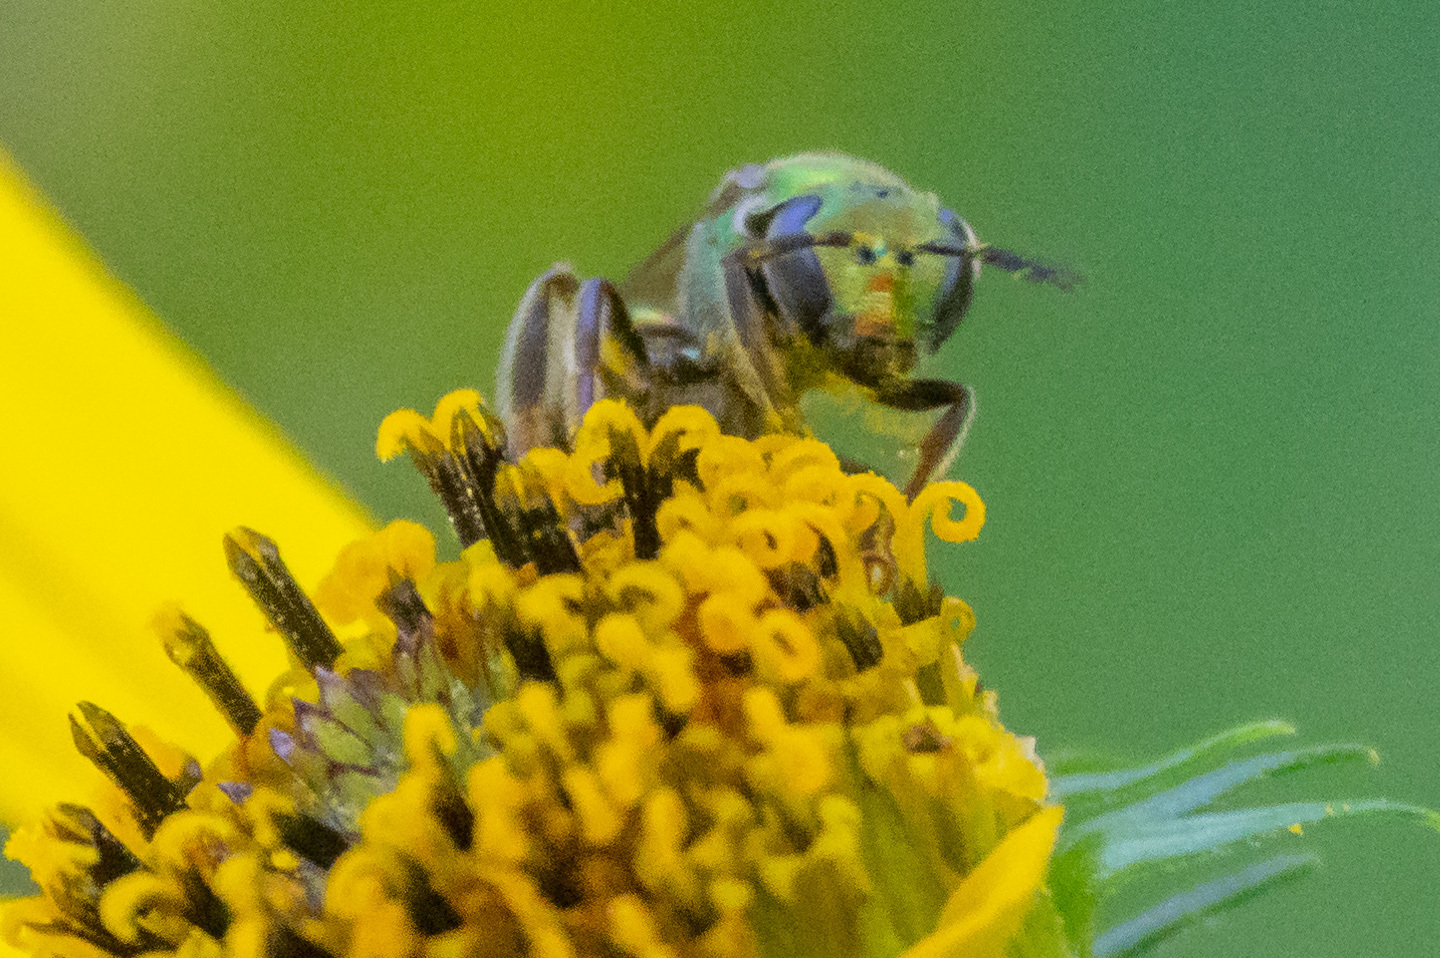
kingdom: Animalia
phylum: Arthropoda
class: Insecta
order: Hymenoptera
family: Halictidae
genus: Augochlora
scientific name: Augochlora pura
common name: Pure green sweat bee
